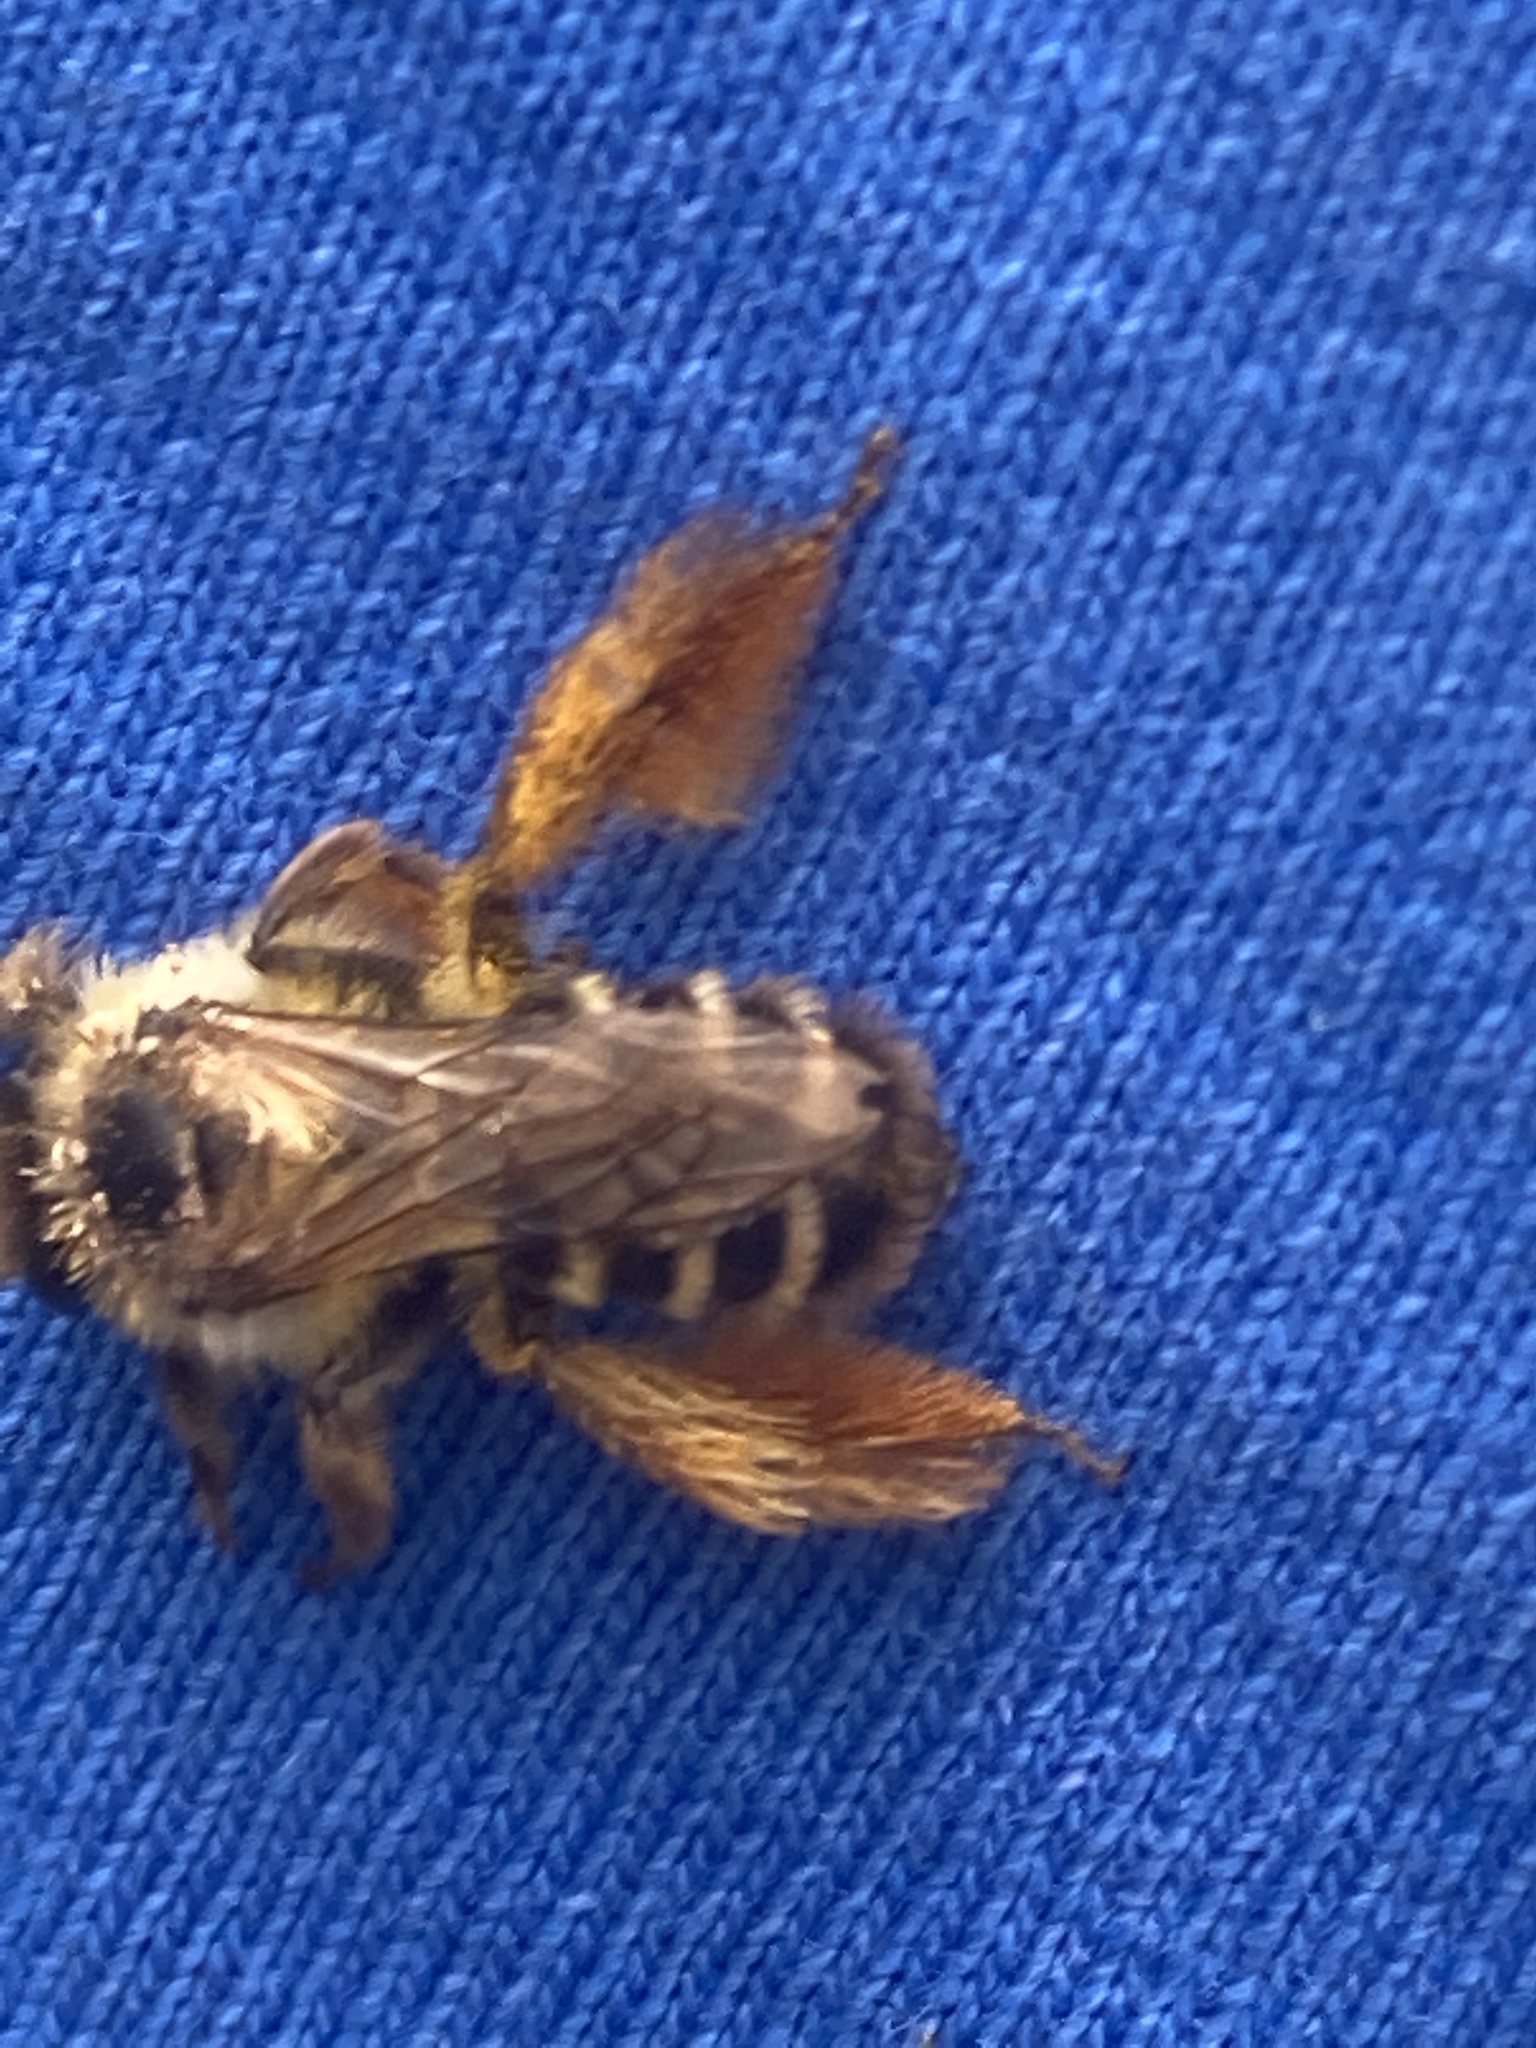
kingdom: Animalia
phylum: Arthropoda
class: Insecta
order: Hymenoptera
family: Melittidae
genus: Dasypoda
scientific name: Dasypoda hirtipes
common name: Pantaloon bee
